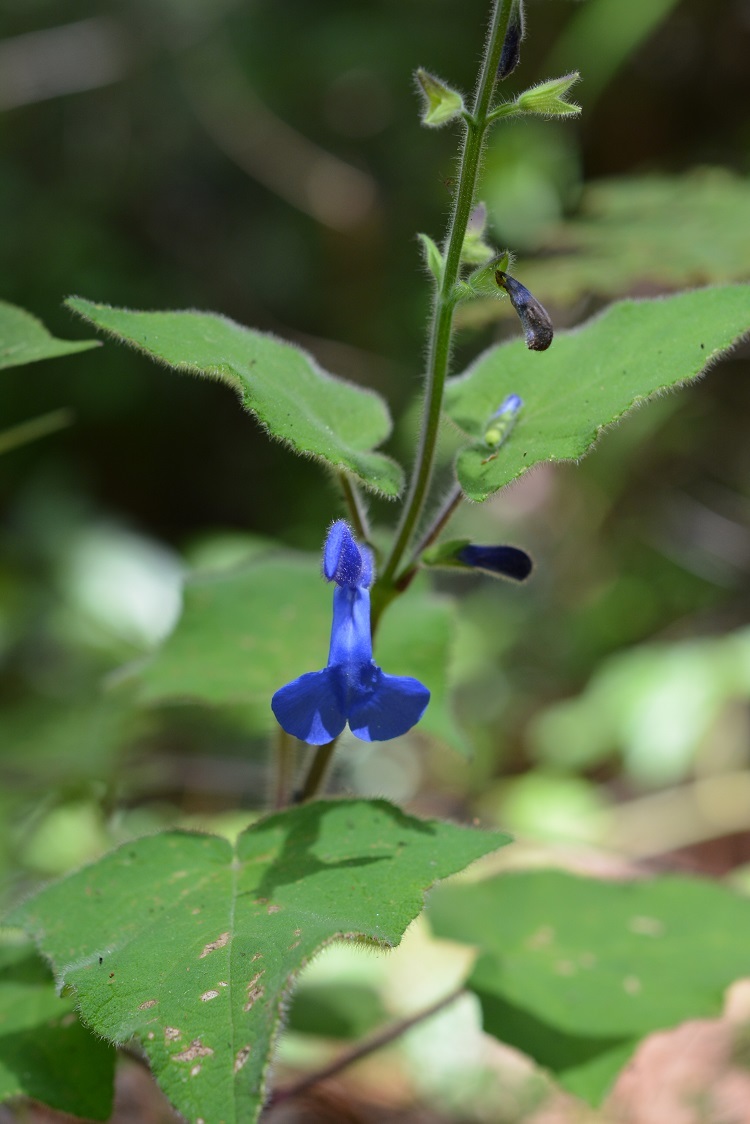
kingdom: Plantae
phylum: Tracheophyta
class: Magnoliopsida
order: Lamiales
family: Lamiaceae
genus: Salvia
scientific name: Salvia patens
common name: Blue sage
